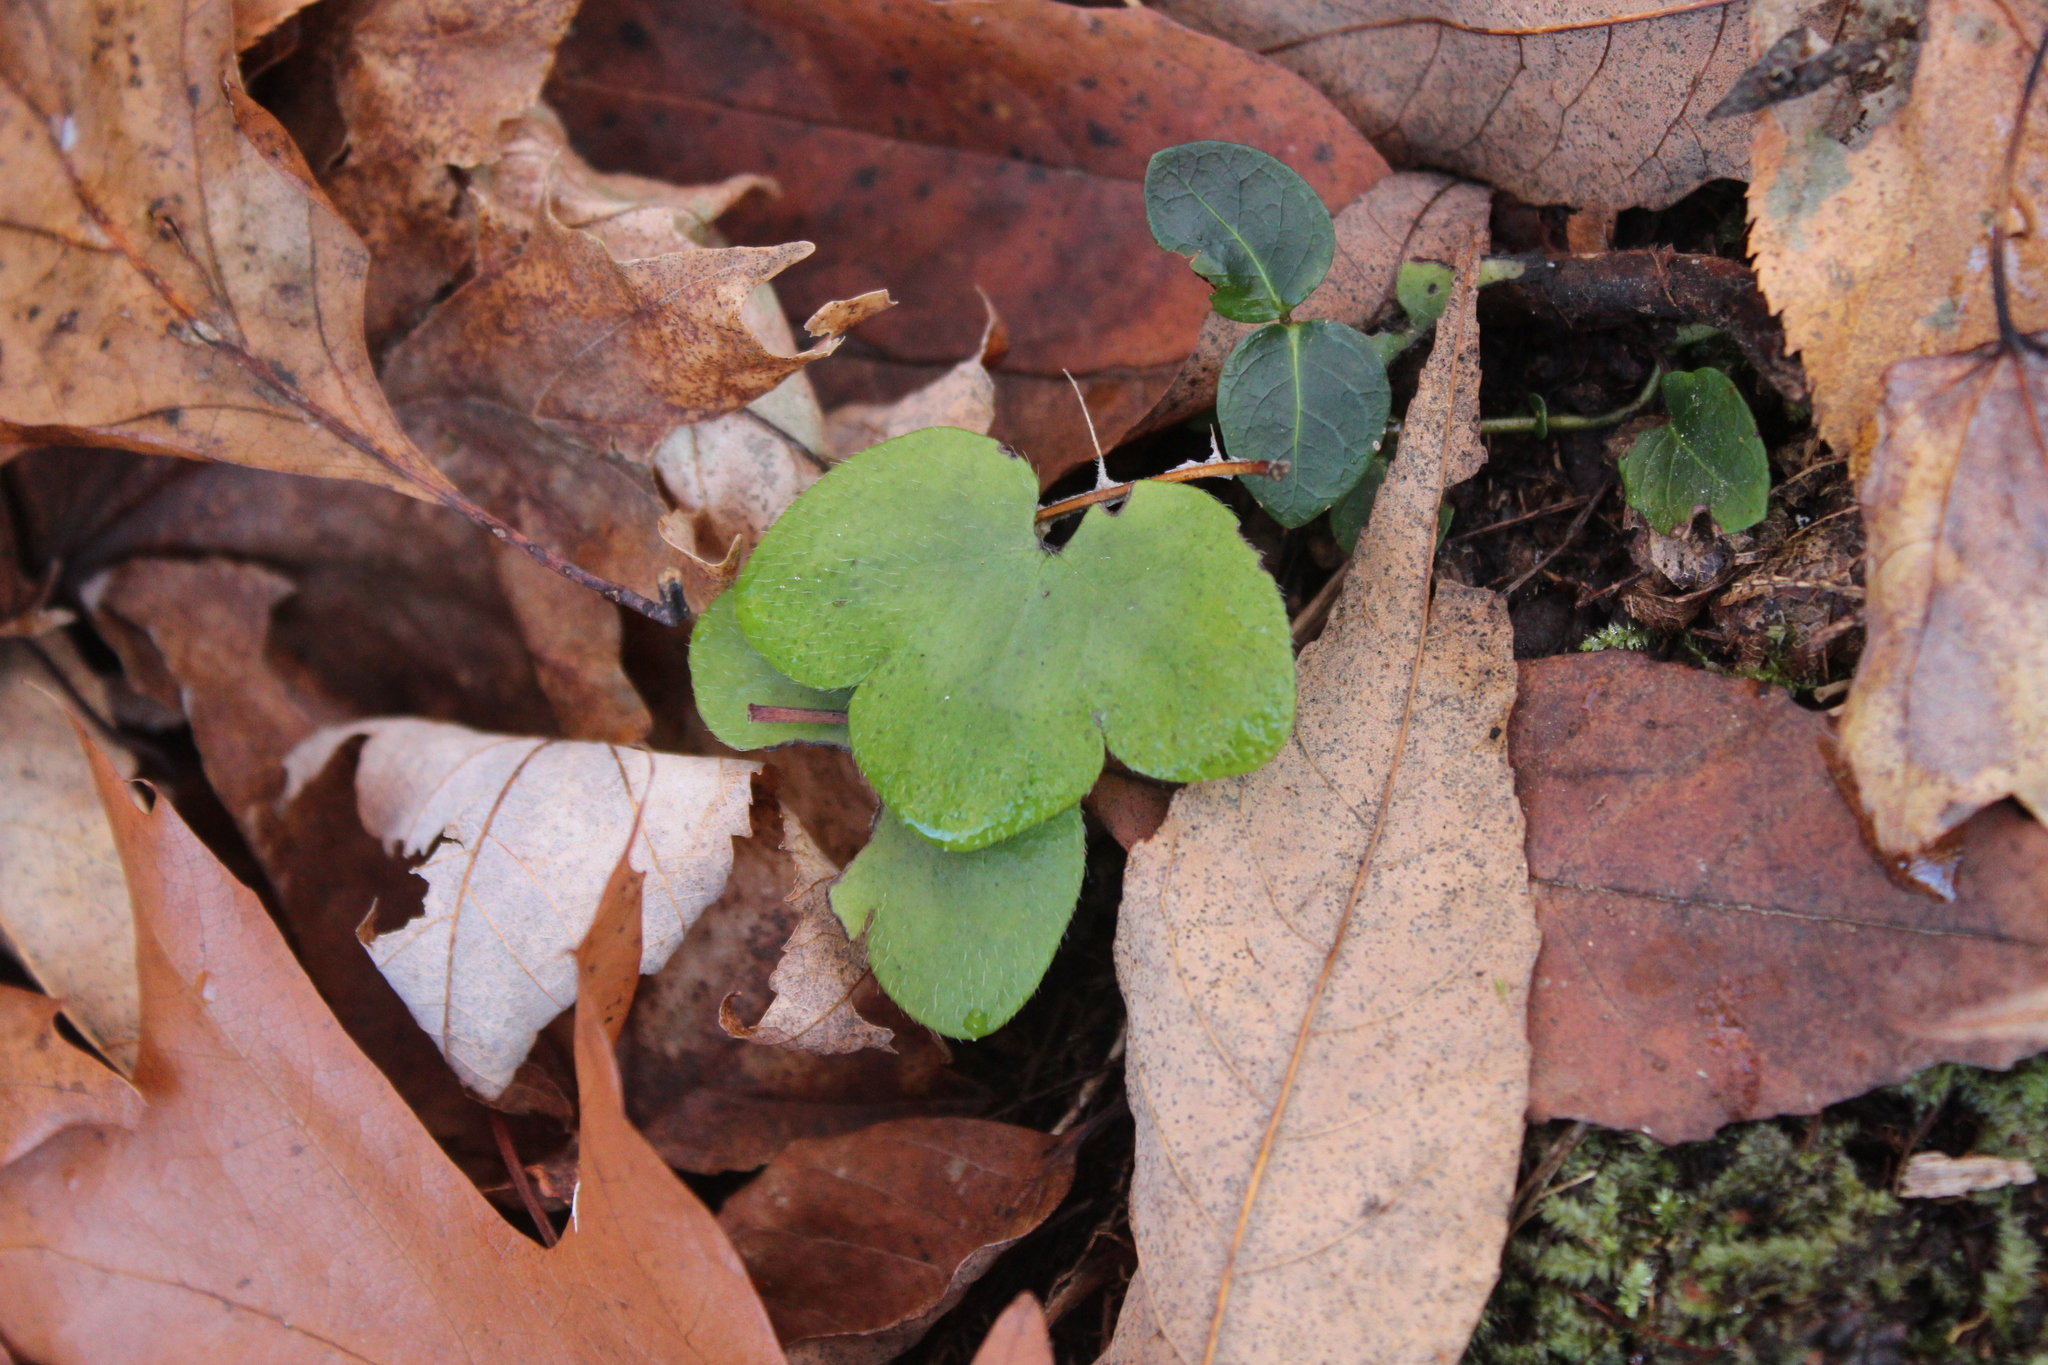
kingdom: Plantae
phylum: Tracheophyta
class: Magnoliopsida
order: Ranunculales
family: Ranunculaceae
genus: Hepatica
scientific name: Hepatica americana
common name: American hepatica
